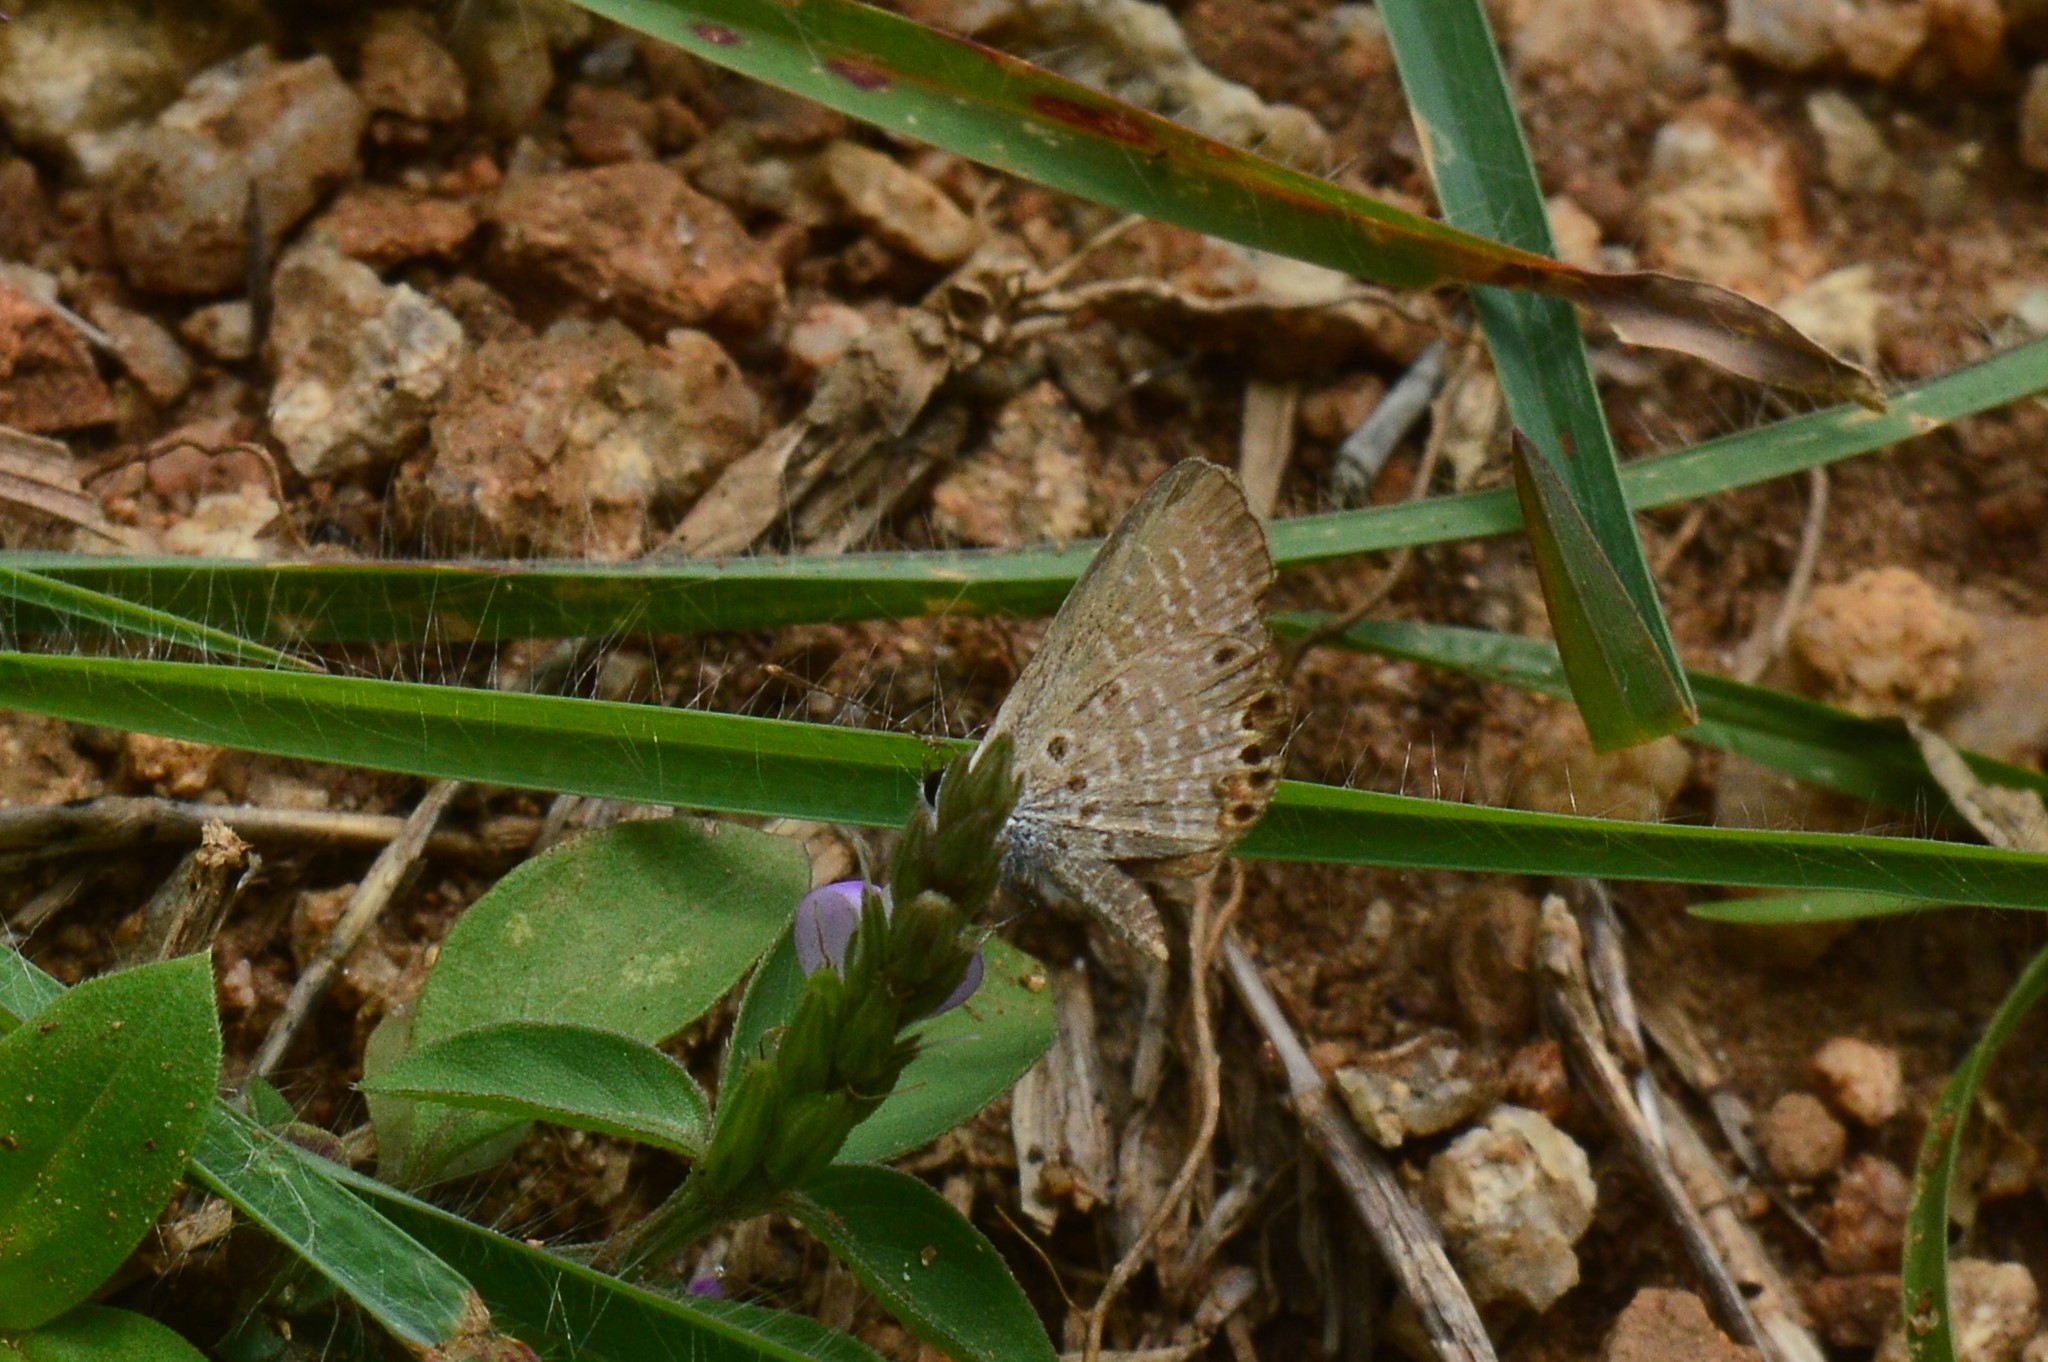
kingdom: Animalia
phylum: Arthropoda
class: Insecta
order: Lepidoptera
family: Lycaenidae
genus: Freyeria
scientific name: Freyeria putli
